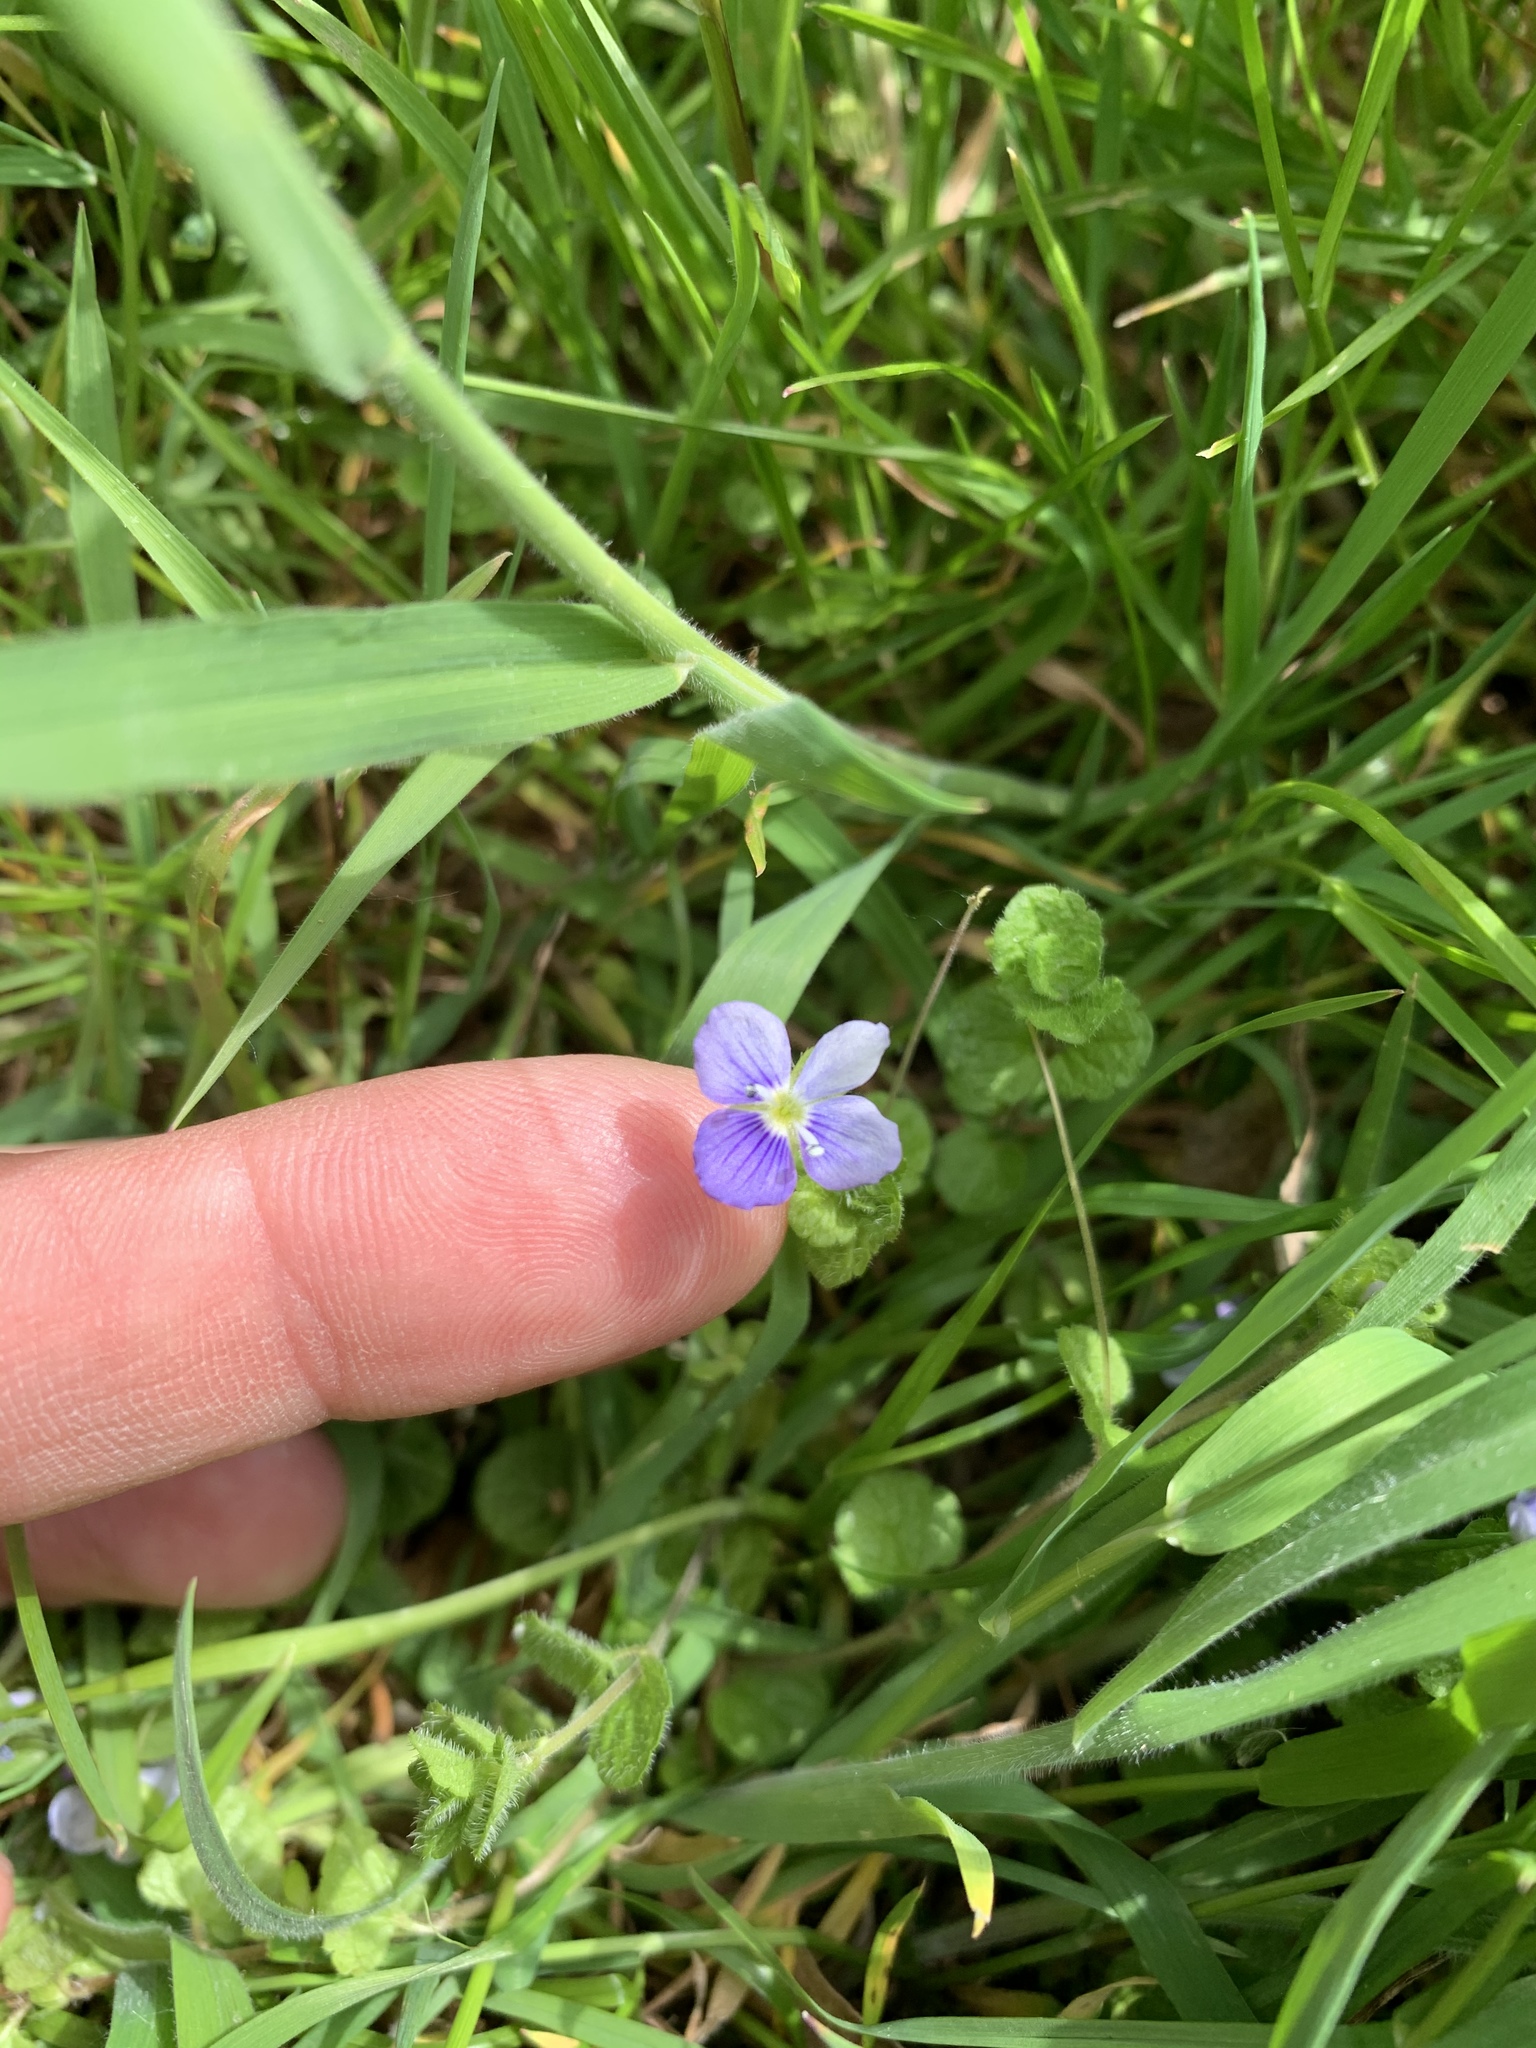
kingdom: Plantae
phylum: Tracheophyta
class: Magnoliopsida
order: Lamiales
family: Plantaginaceae
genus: Veronica
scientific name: Veronica filiformis
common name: Slender speedwell
